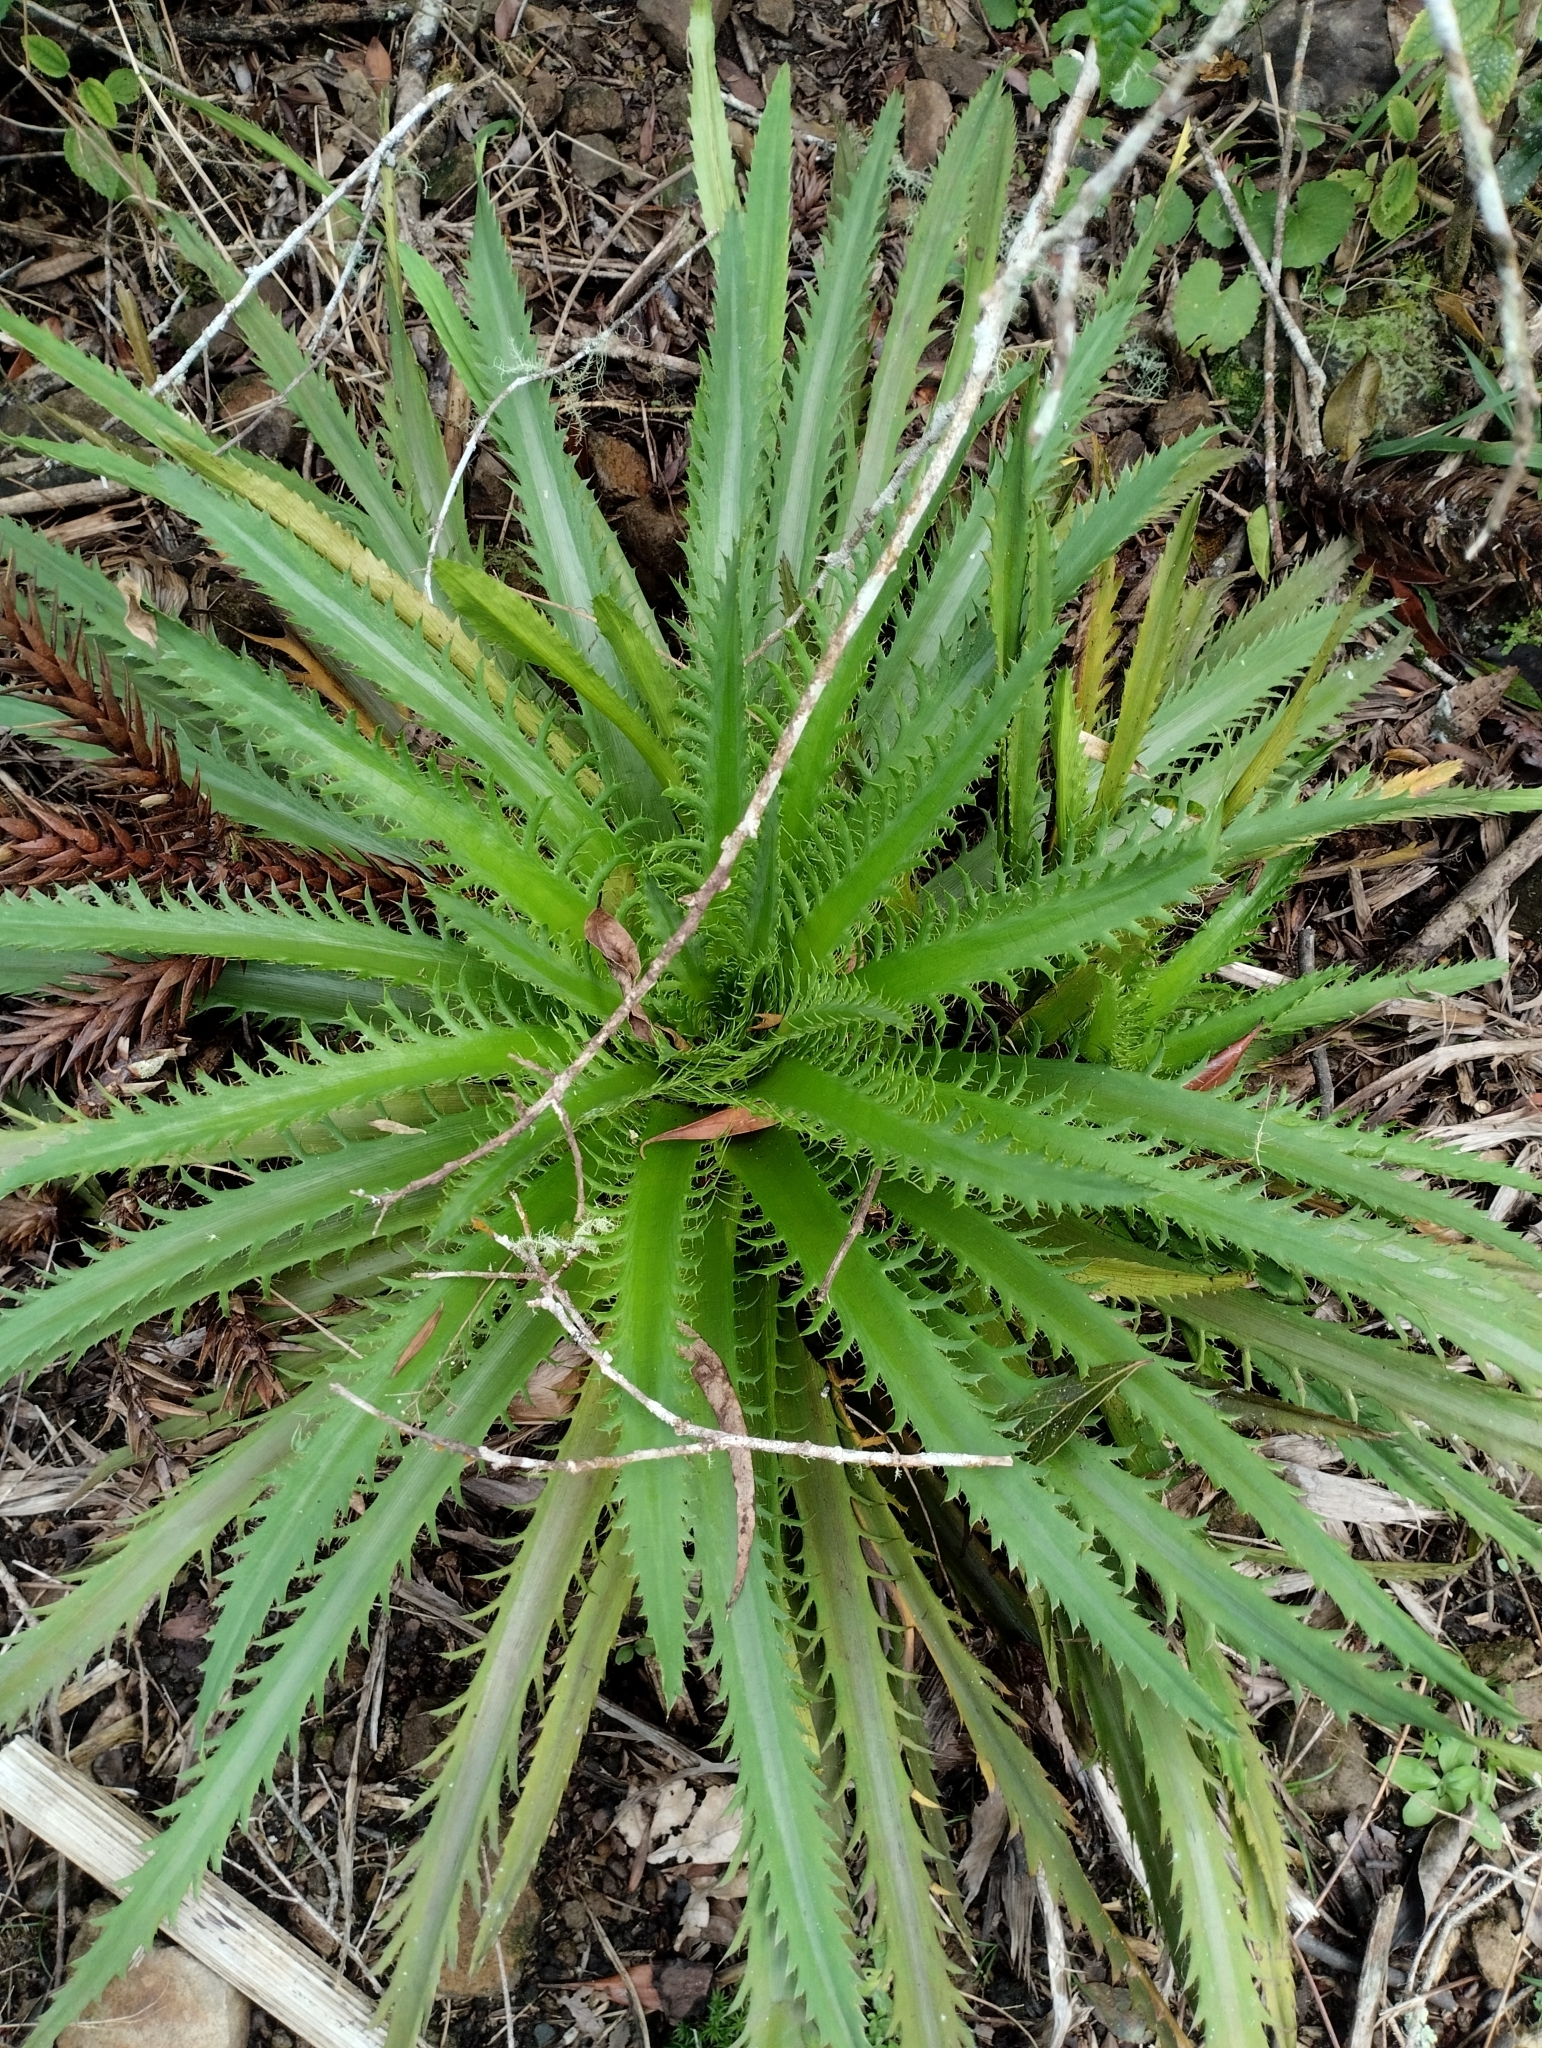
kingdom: Plantae
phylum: Tracheophyta
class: Magnoliopsida
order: Apiales
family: Apiaceae
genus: Eryngium
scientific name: Eryngium serra
